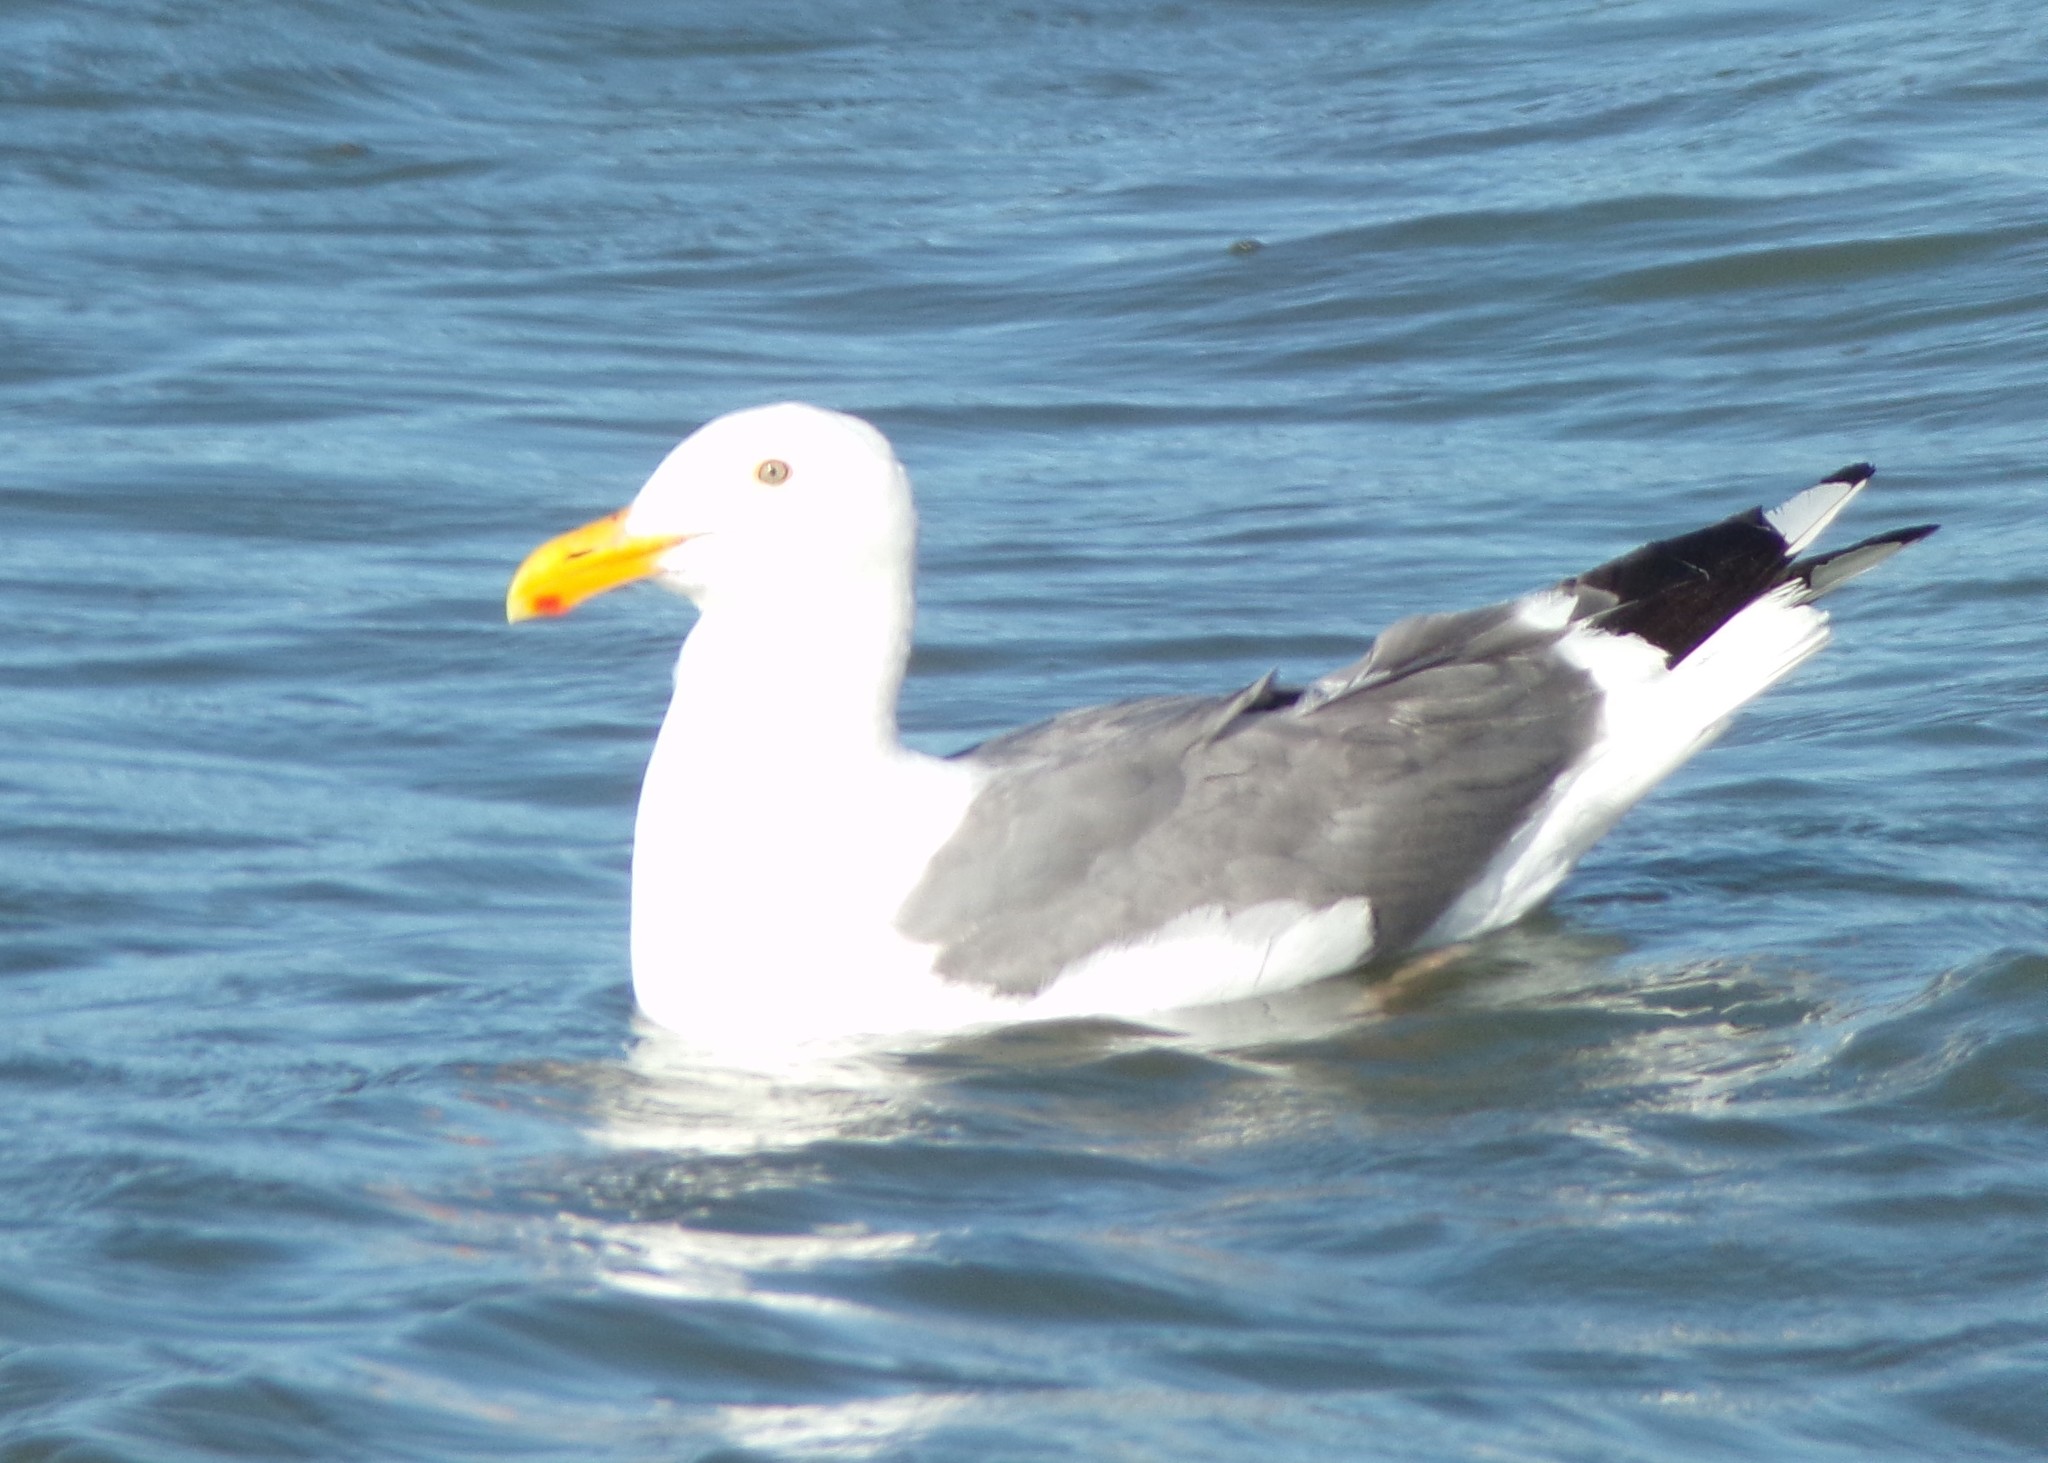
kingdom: Animalia
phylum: Chordata
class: Aves
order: Charadriiformes
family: Laridae
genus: Larus
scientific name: Larus occidentalis
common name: Western gull
